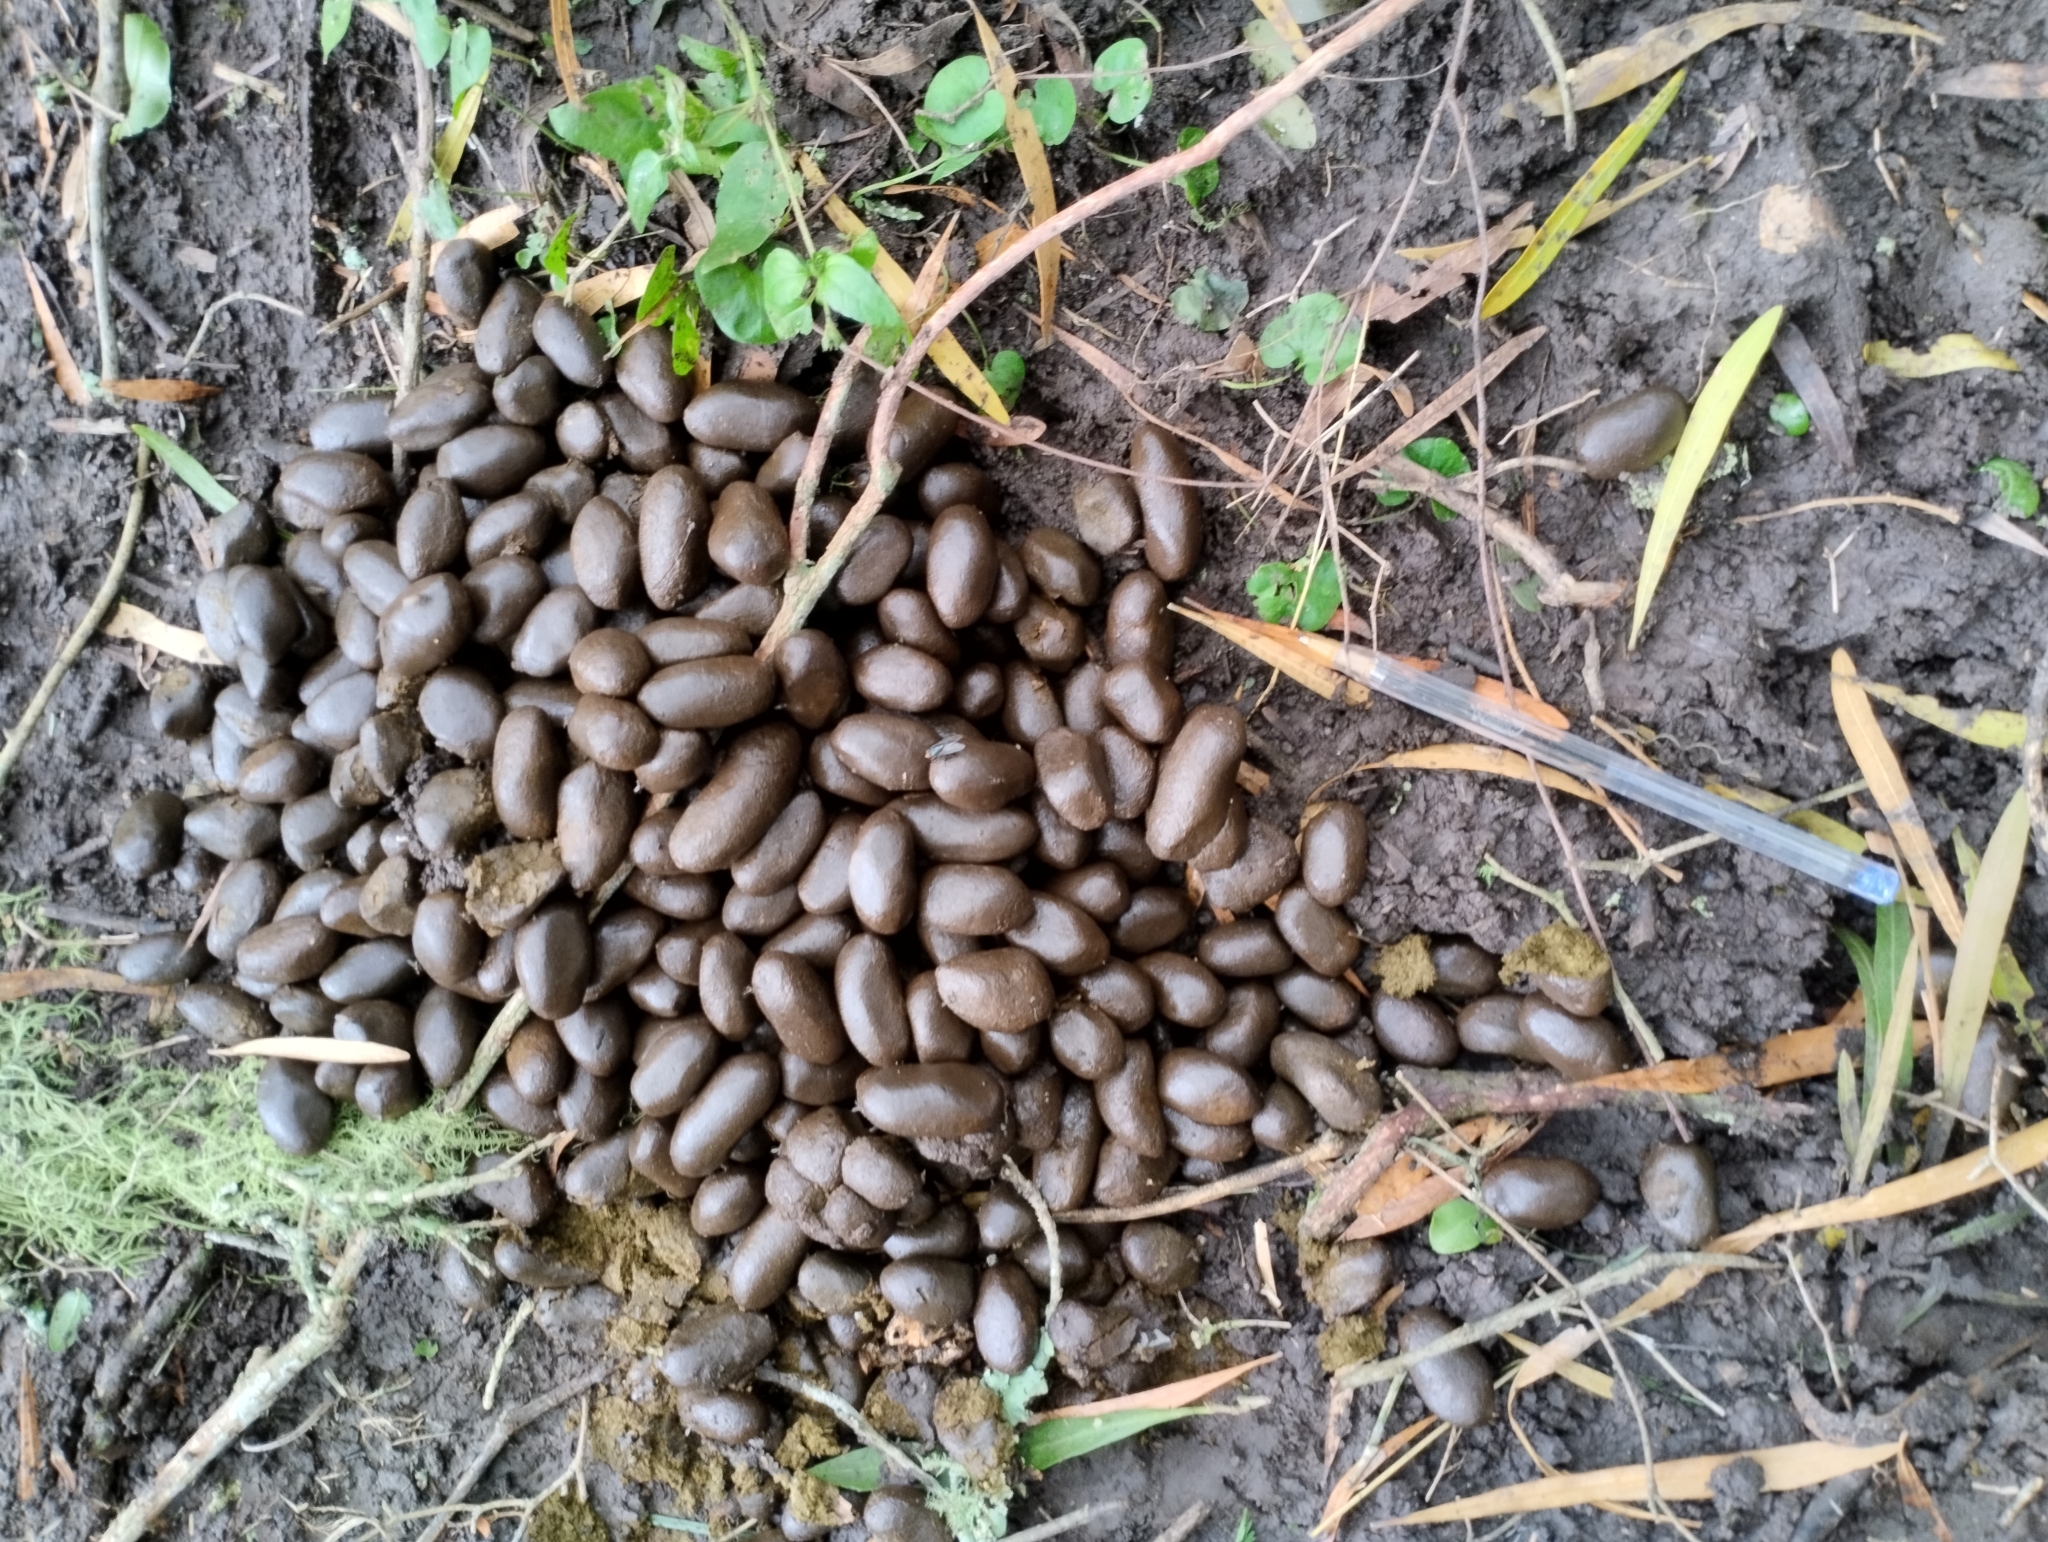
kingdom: Animalia
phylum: Chordata
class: Mammalia
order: Rodentia
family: Caviidae
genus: Hydrochoerus
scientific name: Hydrochoerus hydrochaeris
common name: Capybara
